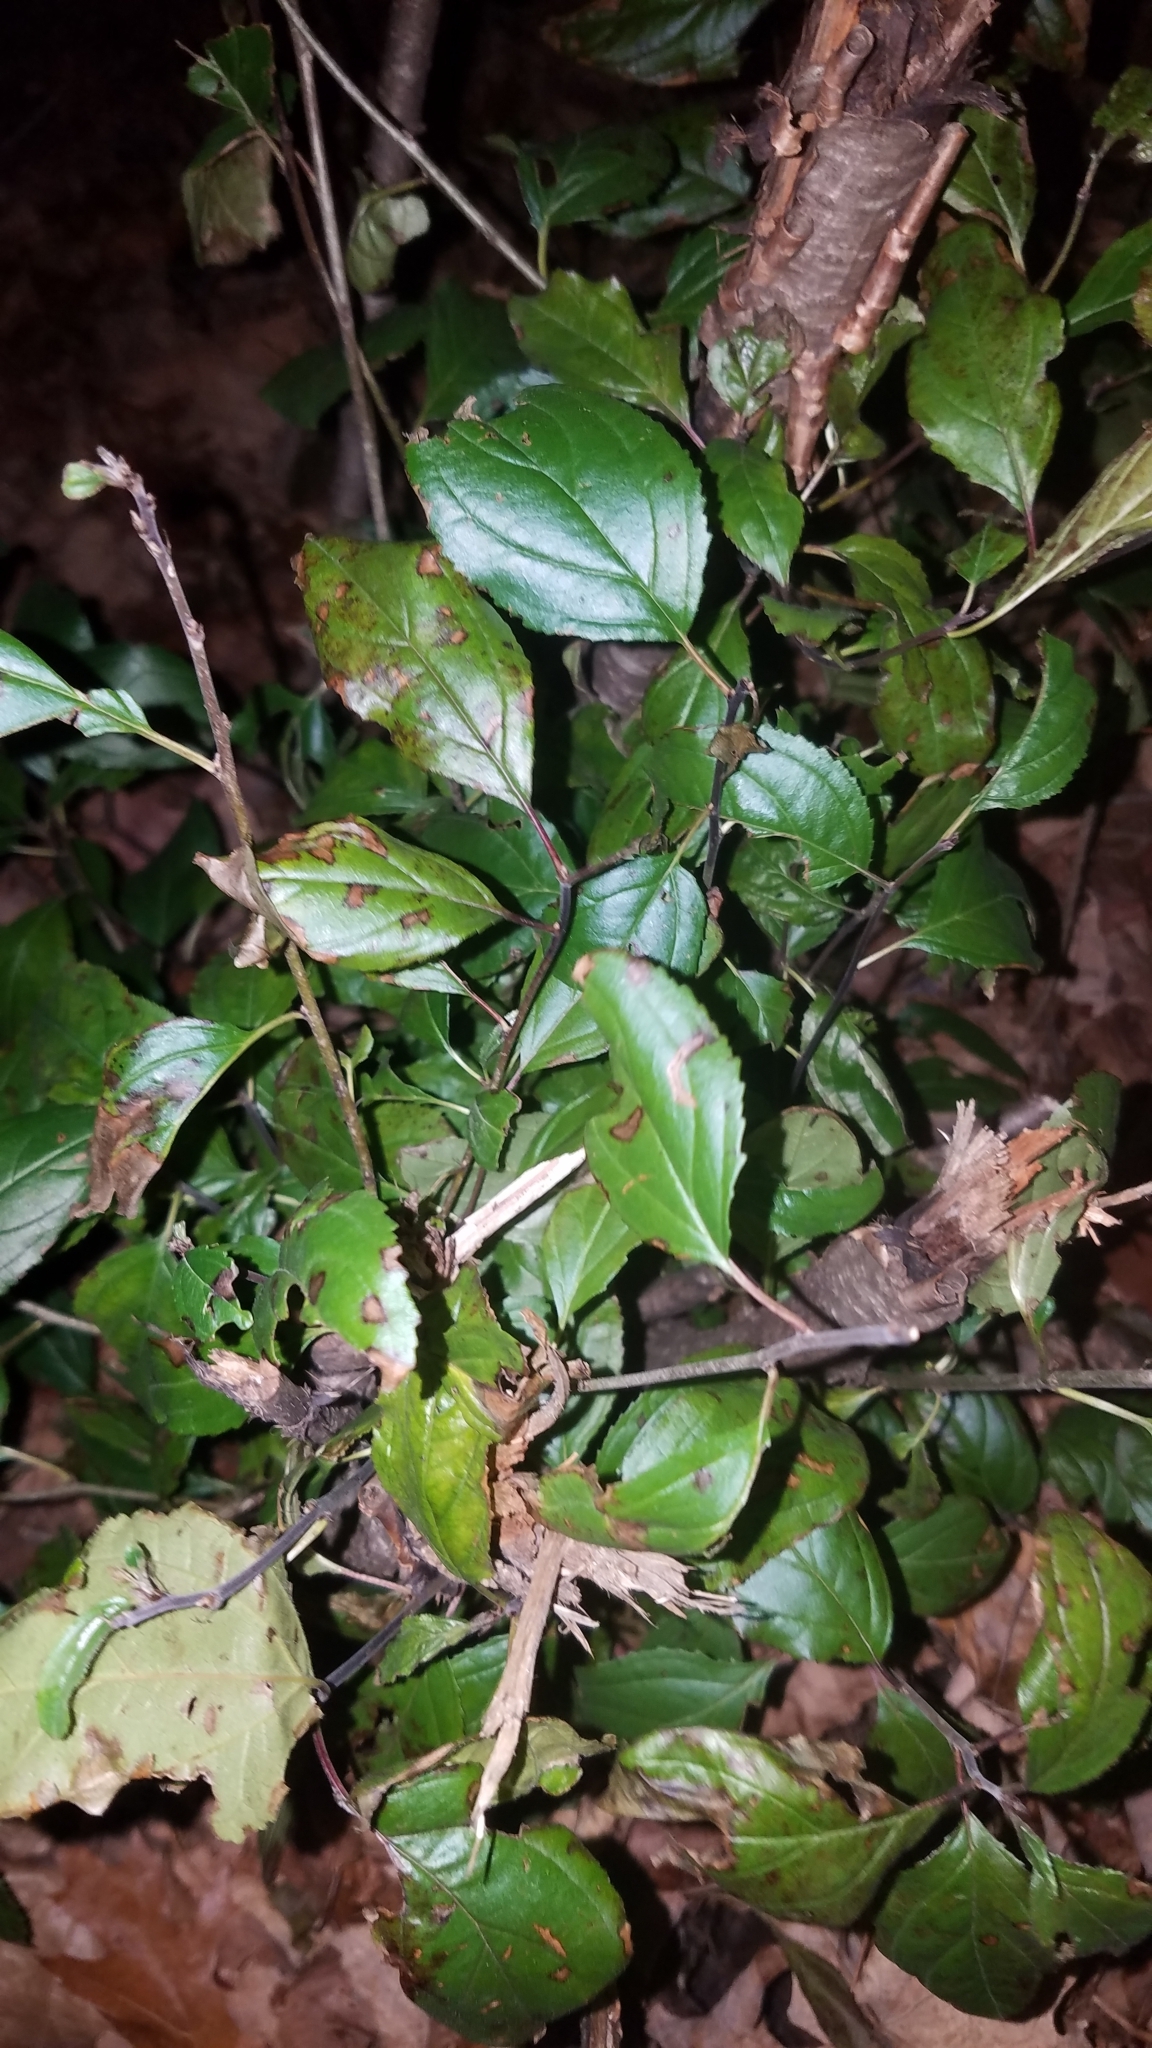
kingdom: Plantae
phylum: Tracheophyta
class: Magnoliopsida
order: Rosales
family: Rhamnaceae
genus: Rhamnus
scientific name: Rhamnus cathartica
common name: Common buckthorn
